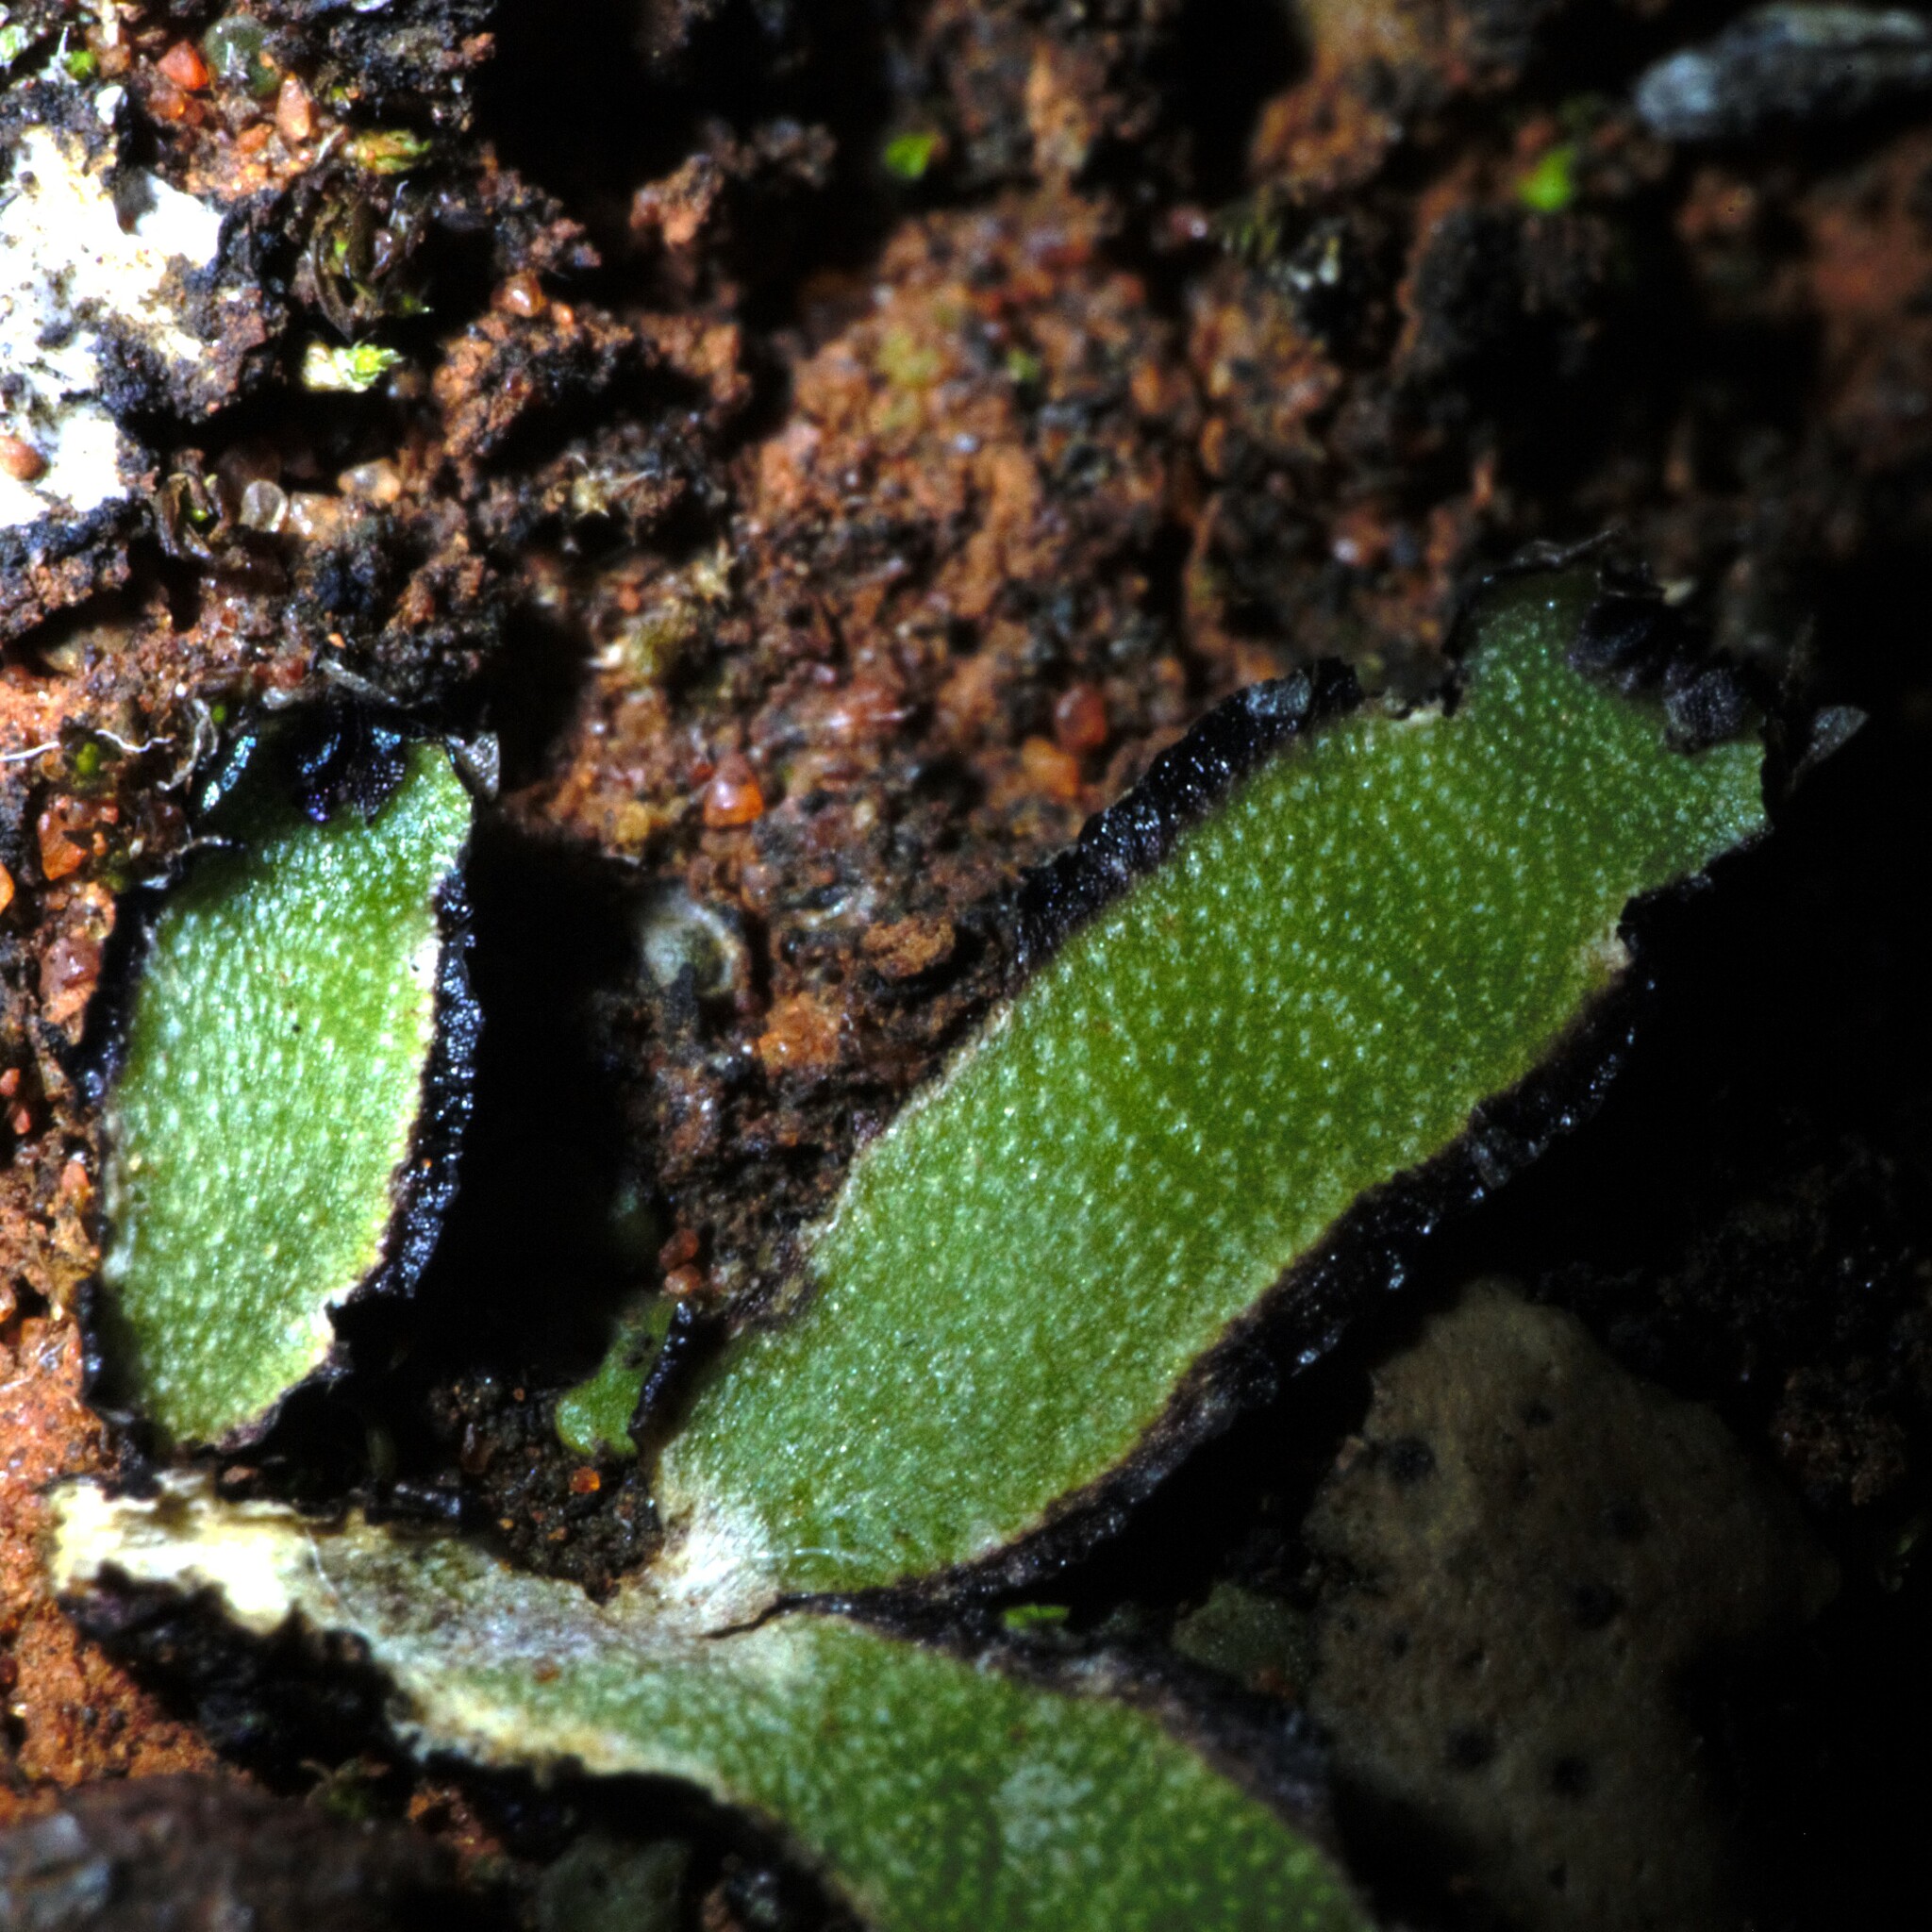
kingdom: Plantae
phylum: Marchantiophyta
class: Marchantiopsida
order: Marchantiales
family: Aytoniaceae
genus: Asterella
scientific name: Asterella drummondii
